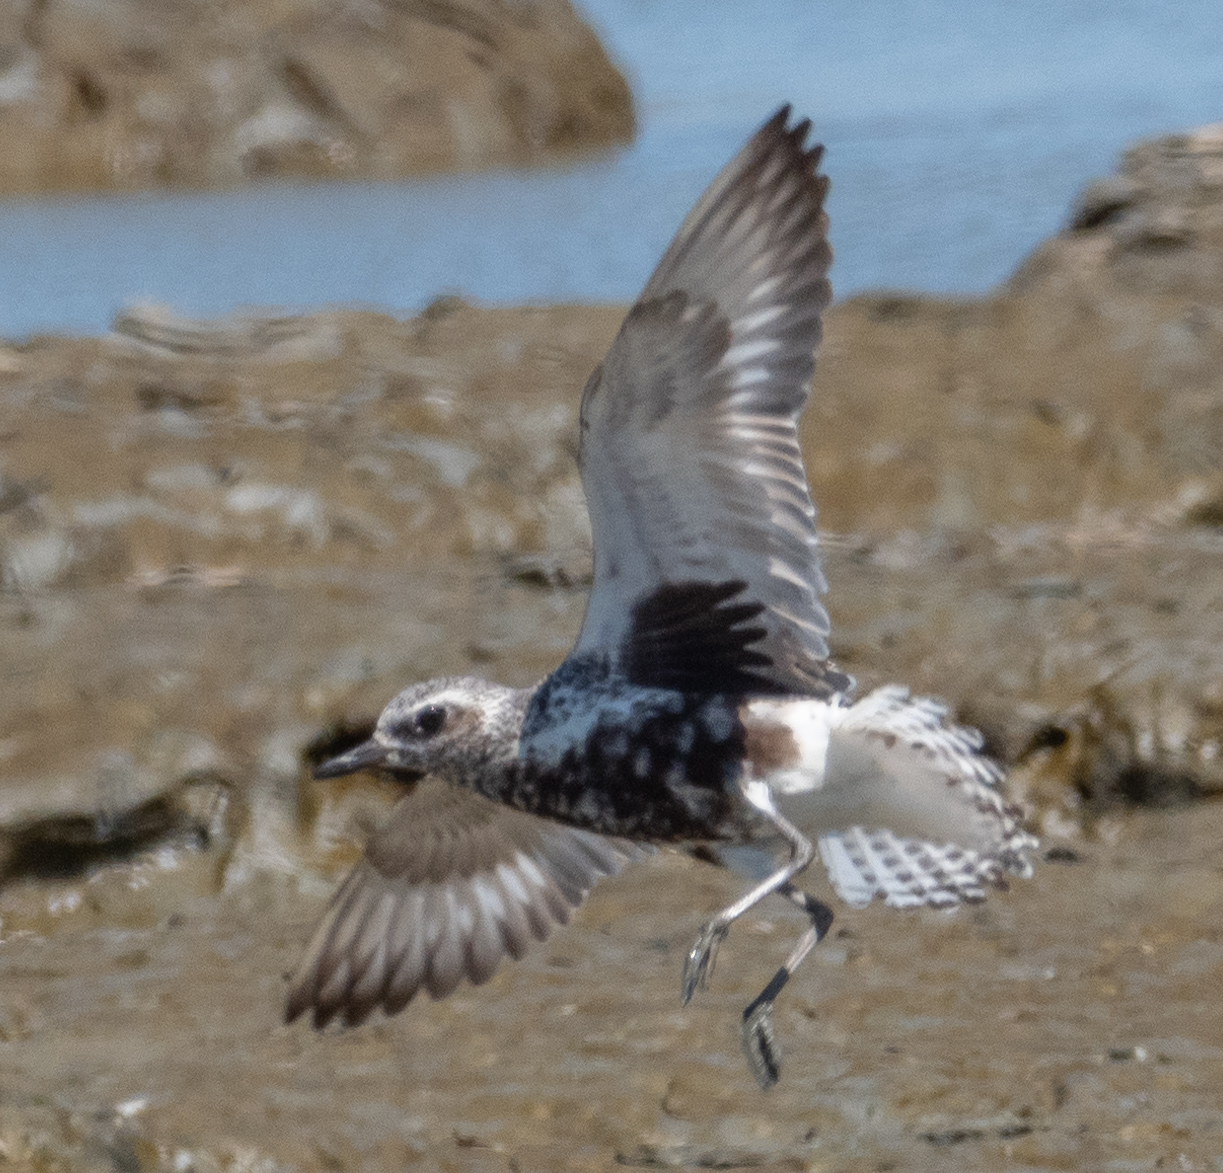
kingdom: Animalia
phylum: Chordata
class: Aves
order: Charadriiformes
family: Charadriidae
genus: Pluvialis
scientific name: Pluvialis squatarola
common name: Grey plover
